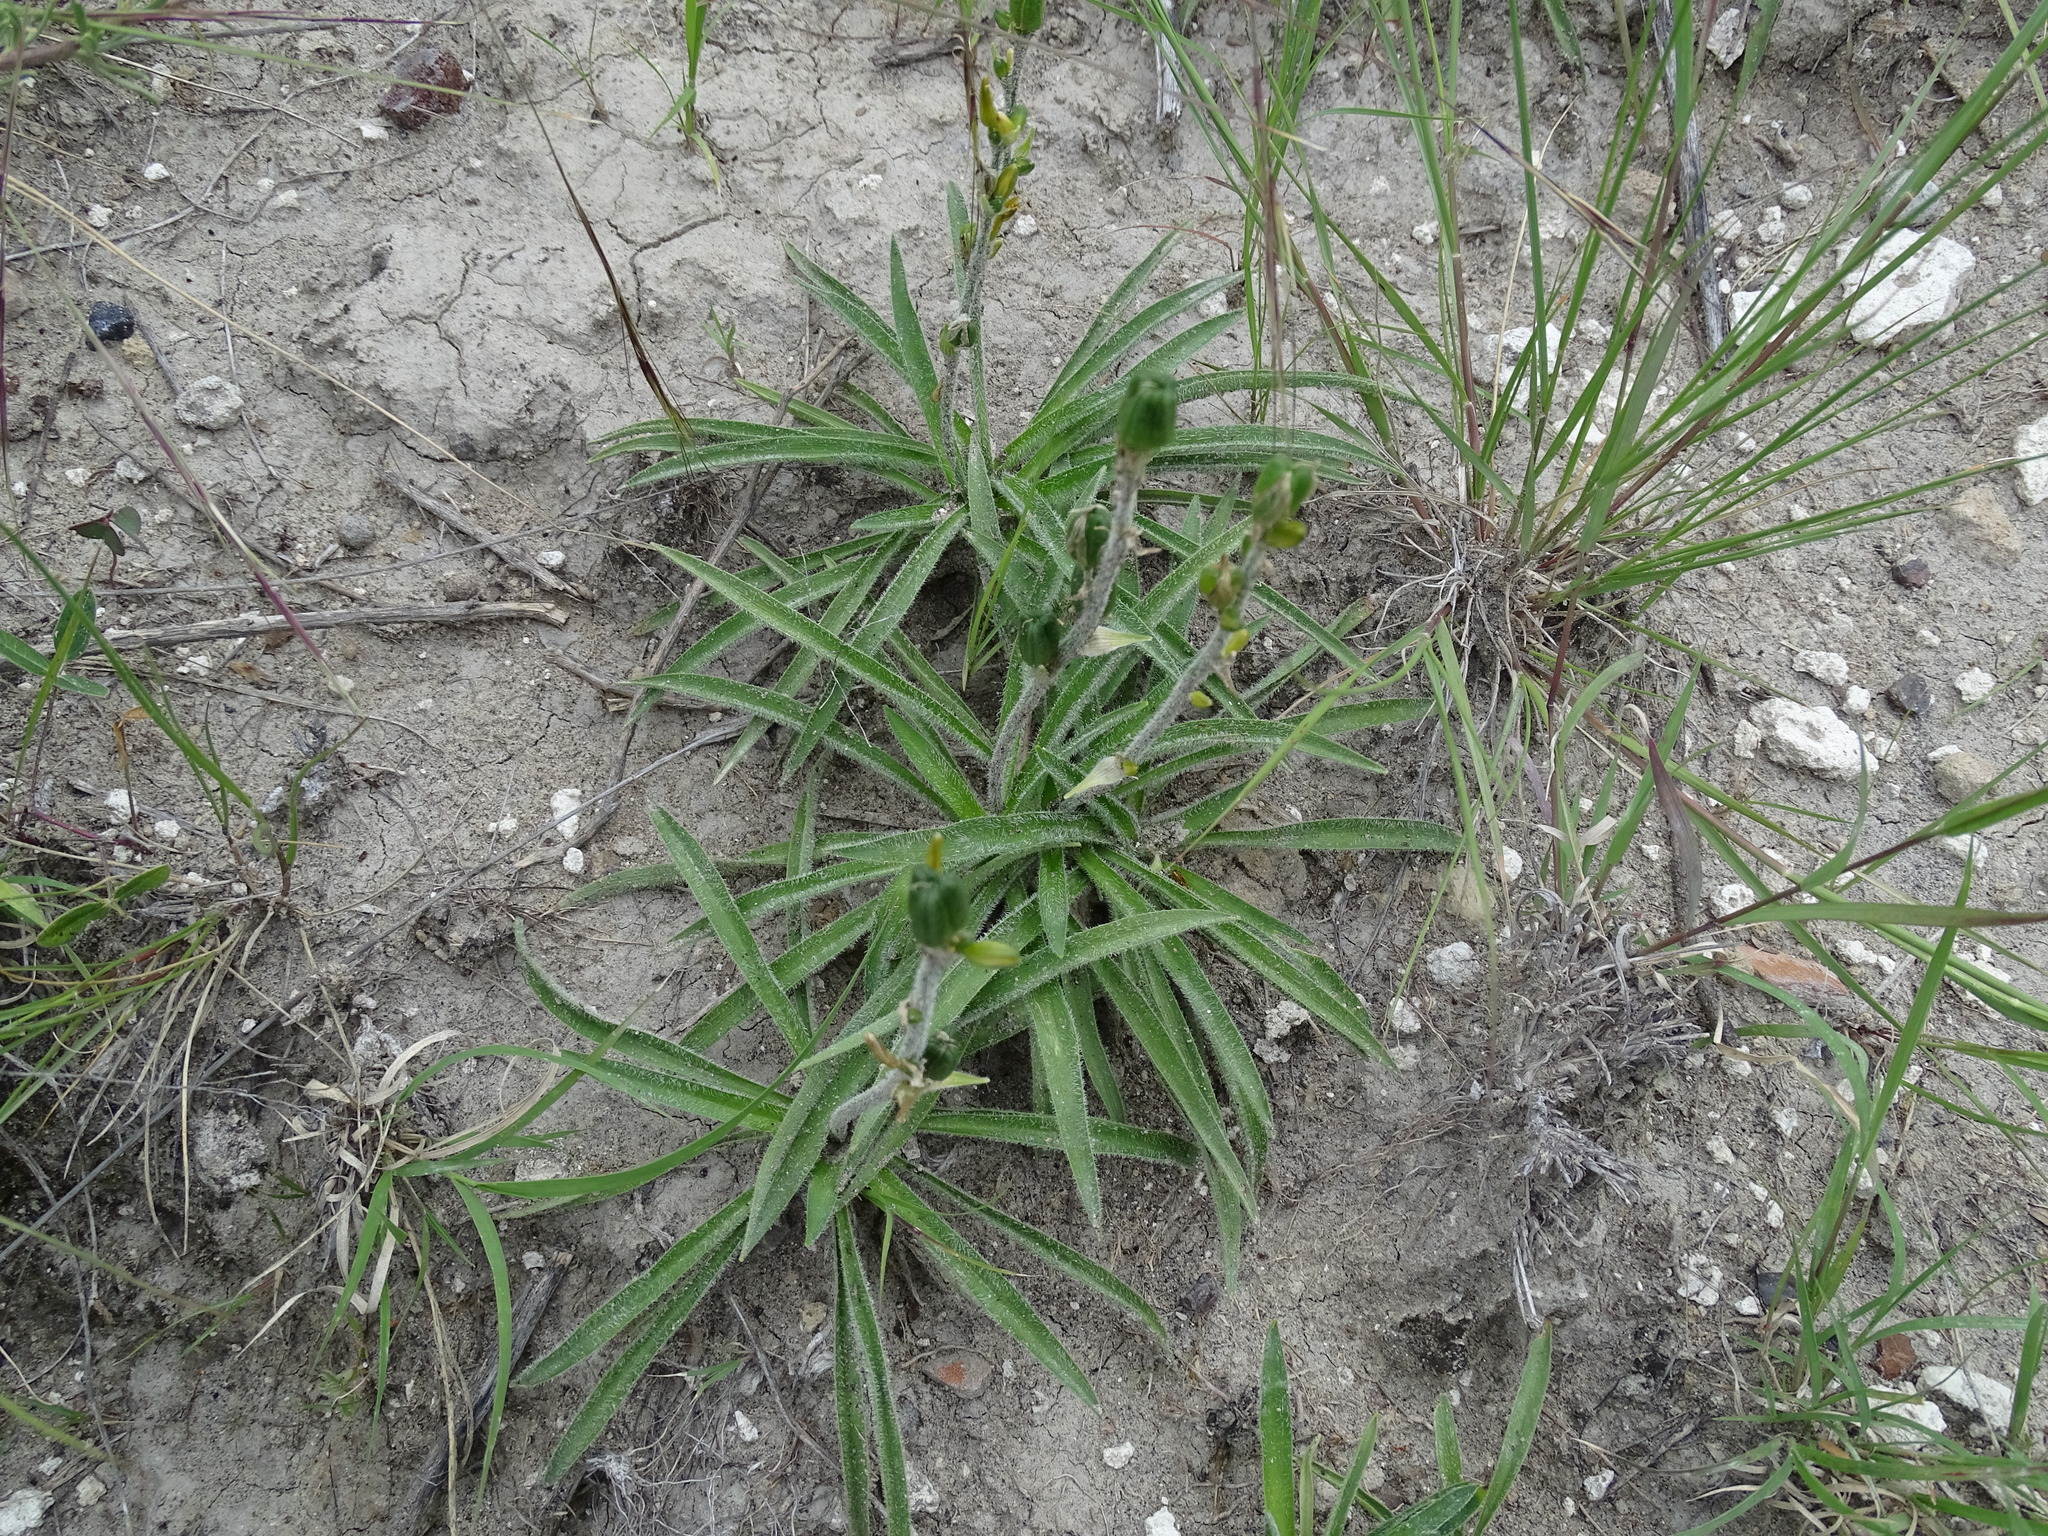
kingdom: Plantae
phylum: Tracheophyta
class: Liliopsida
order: Asparagales
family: Asparagaceae
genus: Echeandia
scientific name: Echeandia vestita
